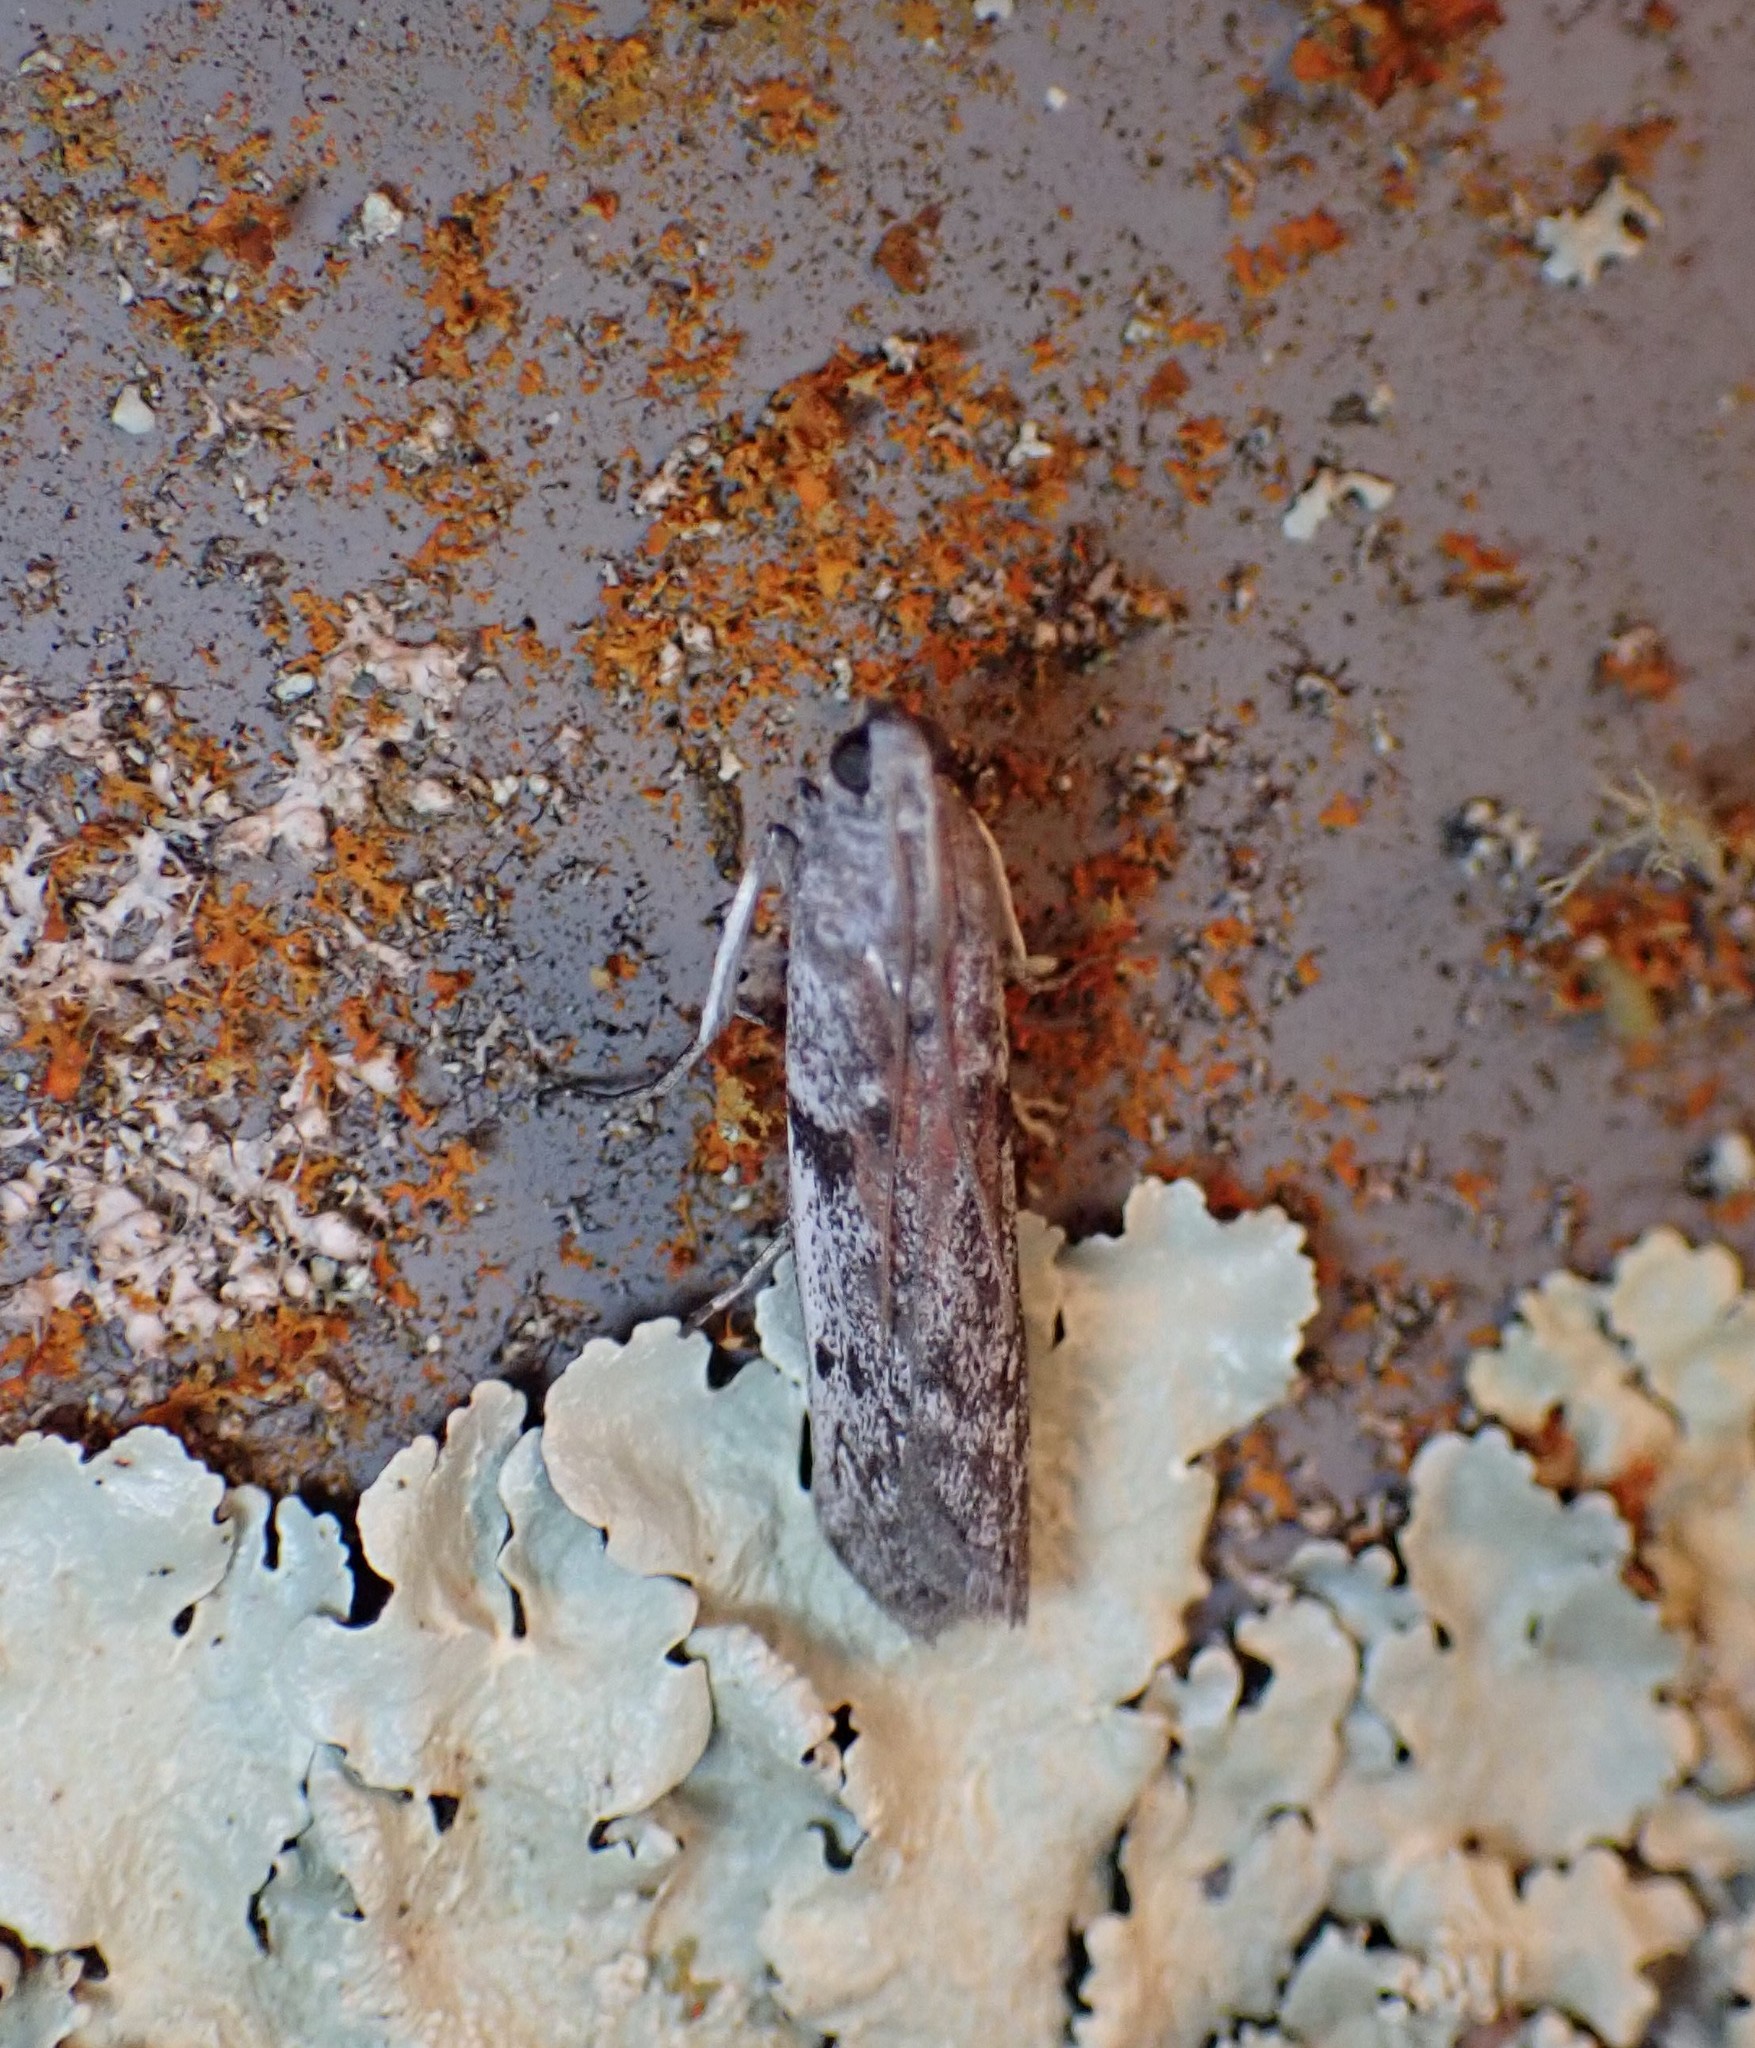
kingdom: Animalia
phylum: Arthropoda
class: Insecta
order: Lepidoptera
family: Pyralidae
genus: Patagoniodes
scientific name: Patagoniodes farinaria
